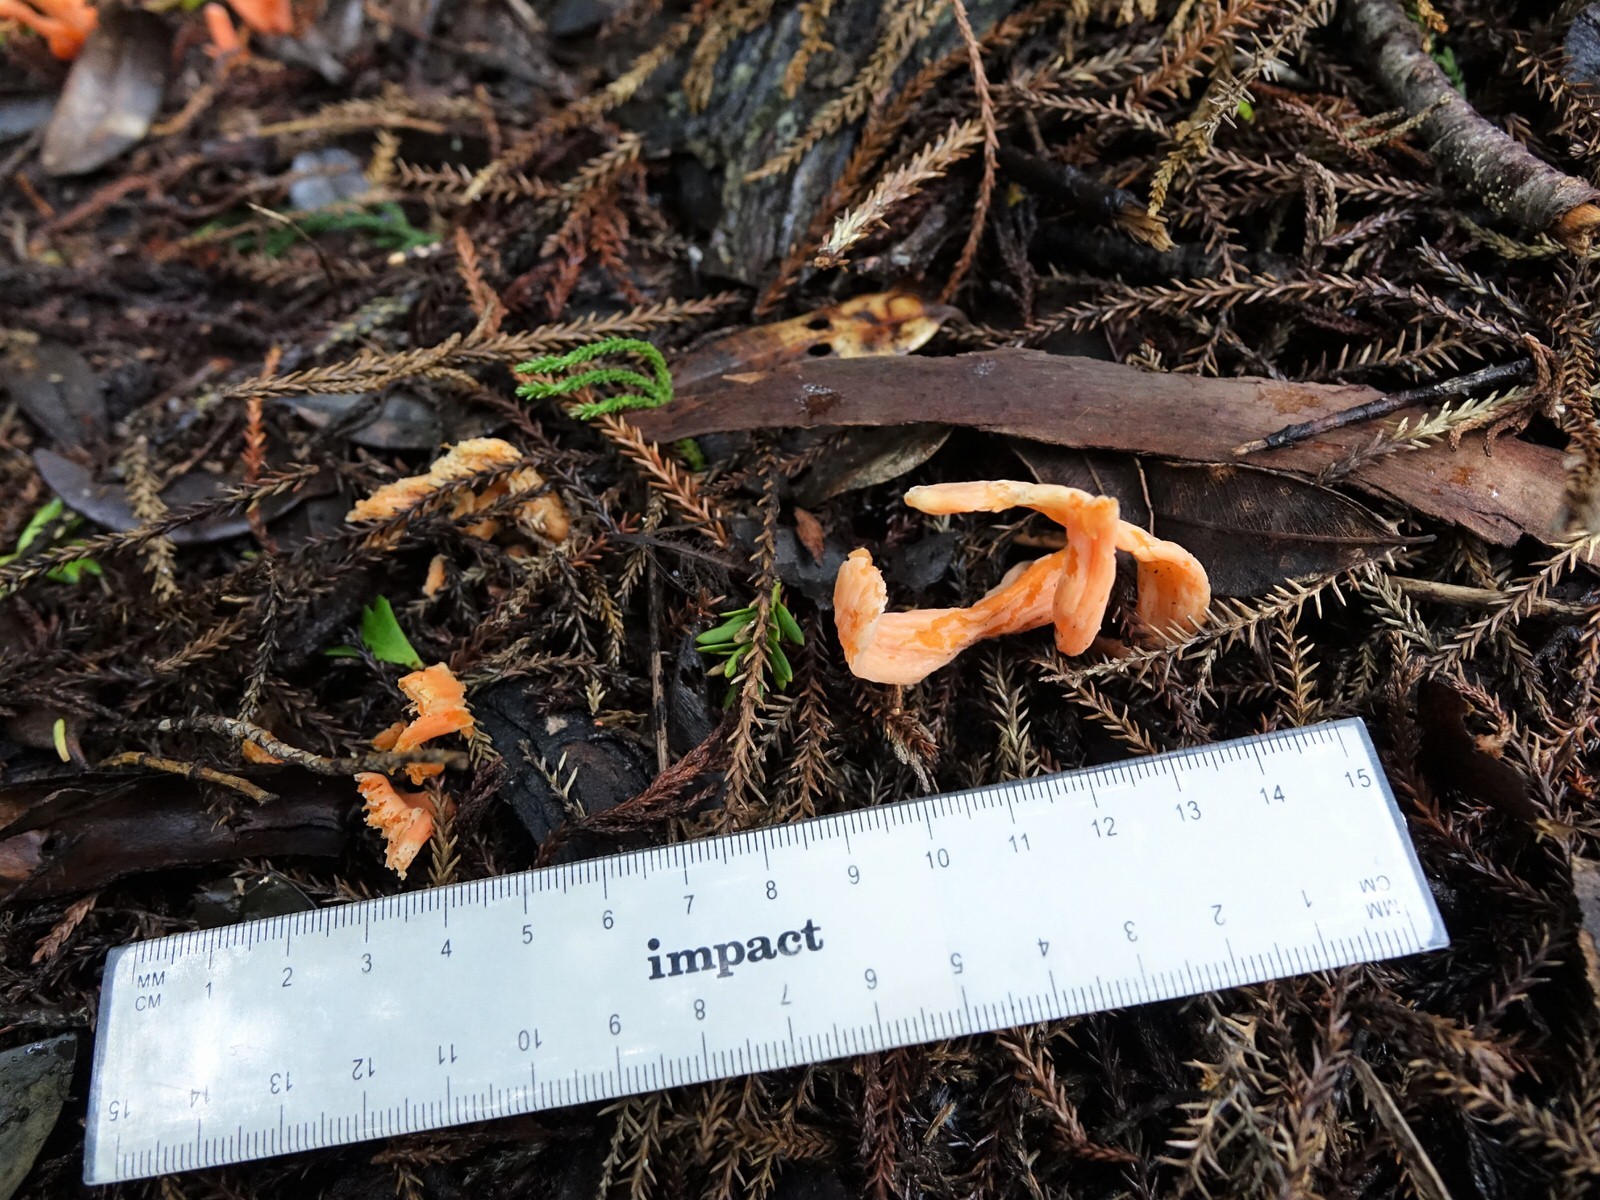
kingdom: Fungi
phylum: Basidiomycota
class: Agaricomycetes
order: Agaricales
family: Clavariaceae
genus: Clavulinopsis
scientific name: Clavulinopsis sulcata
